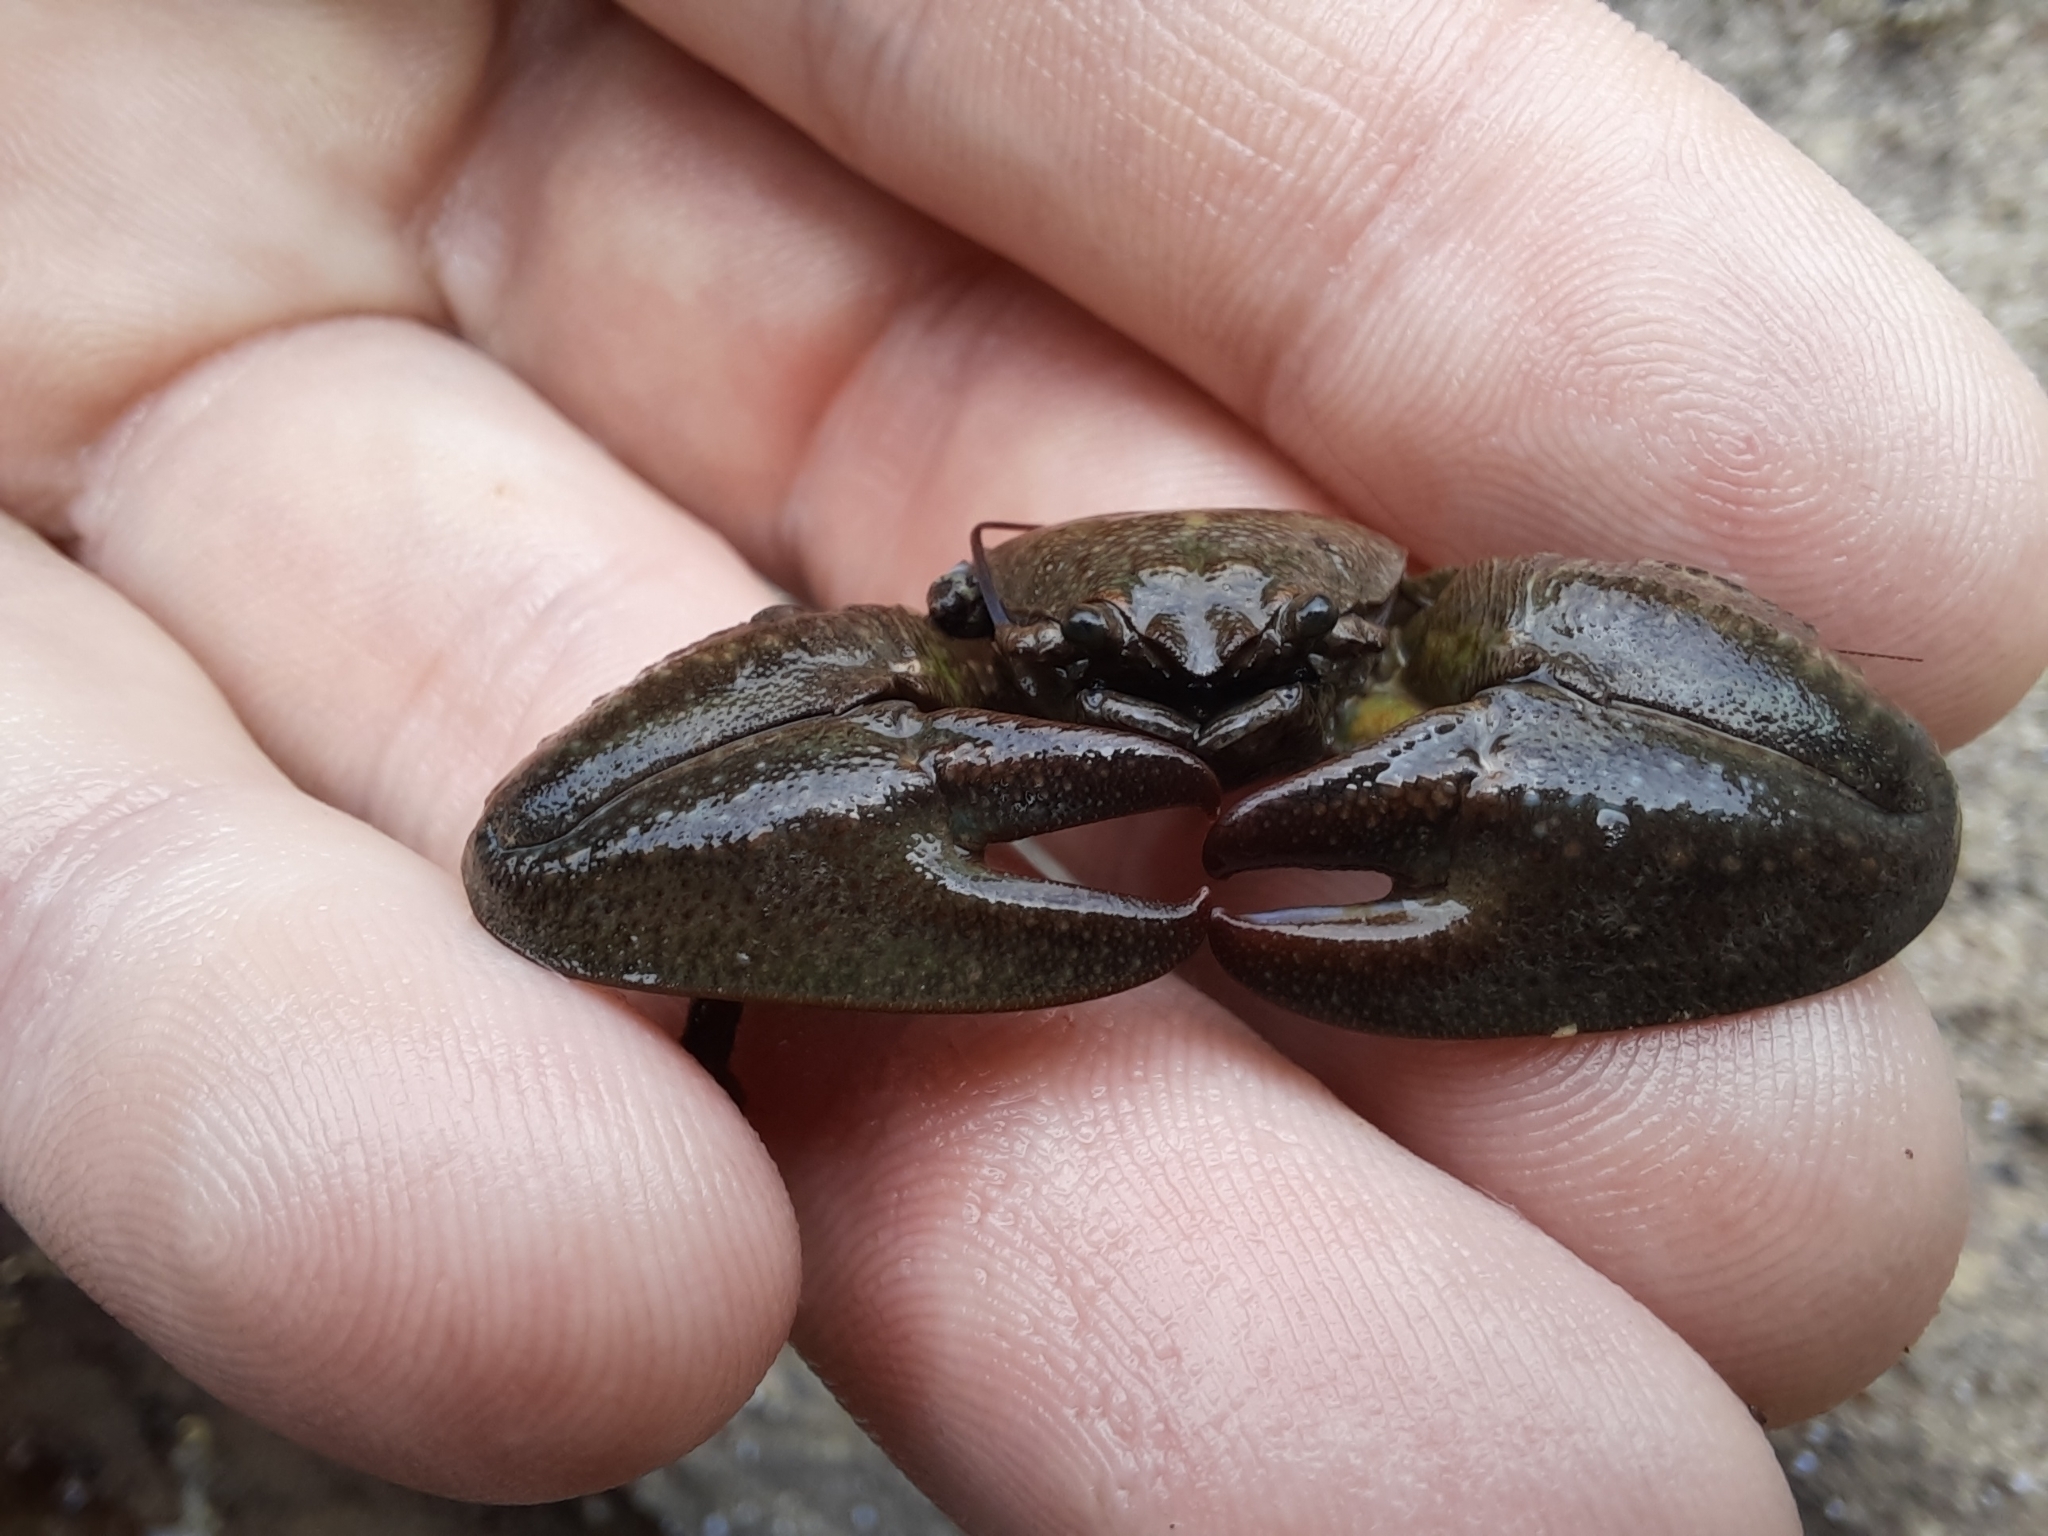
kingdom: Animalia
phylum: Arthropoda
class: Malacostraca
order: Decapoda
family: Porcellanidae
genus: Petrolisthes
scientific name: Petrolisthes elongatus
